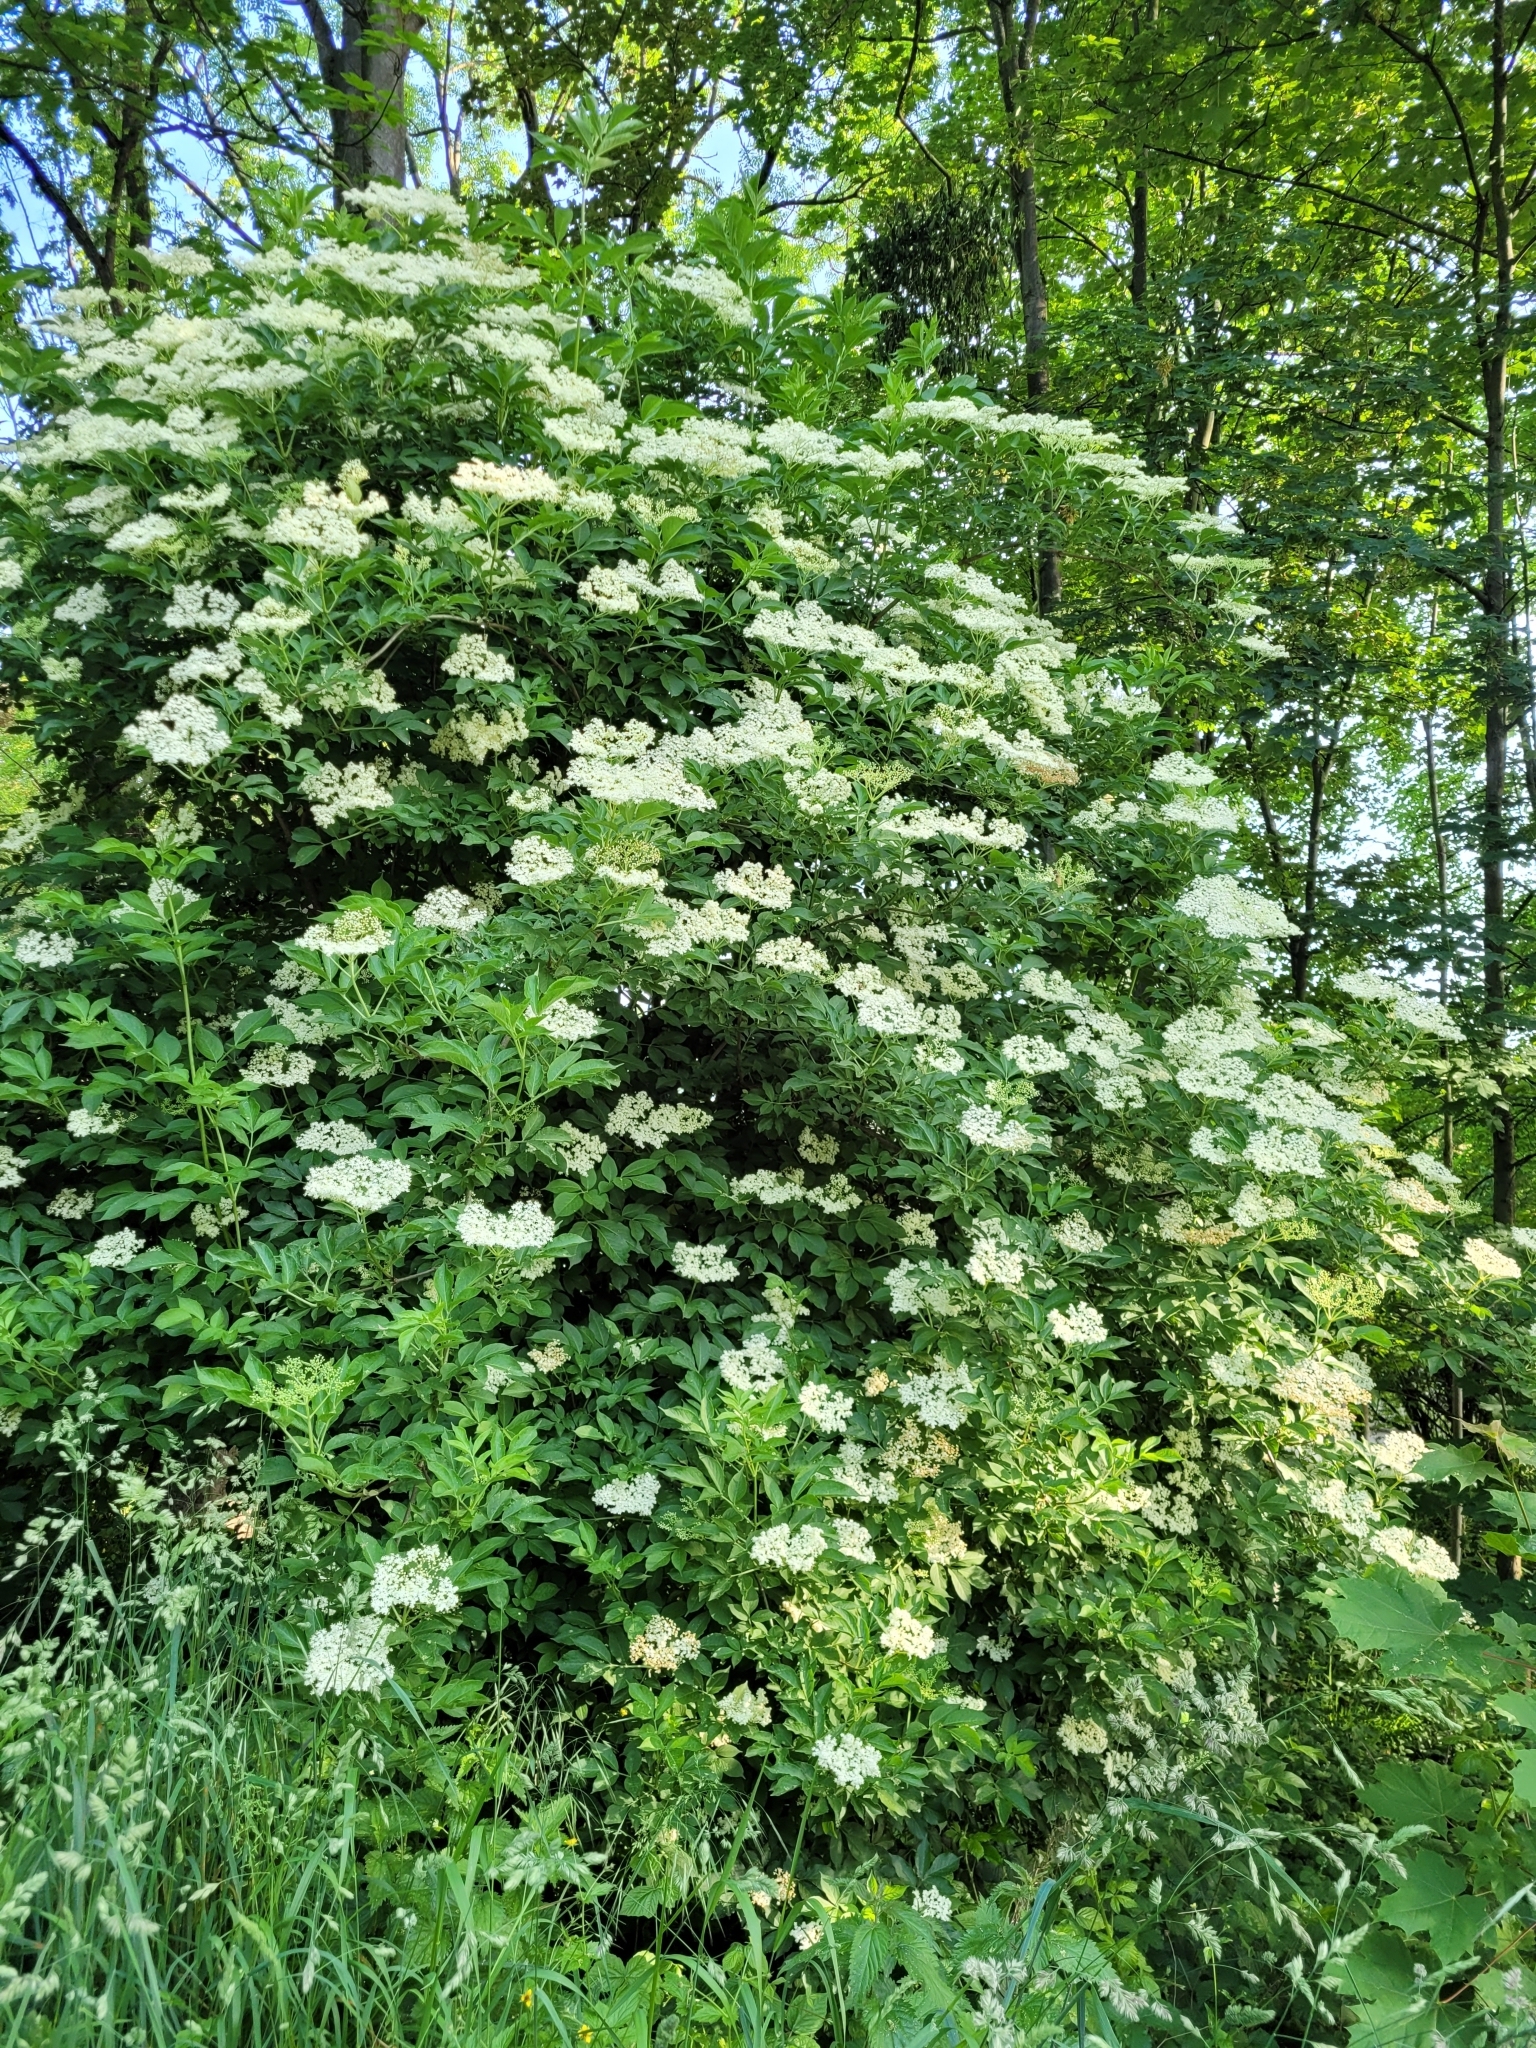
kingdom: Plantae
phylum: Tracheophyta
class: Magnoliopsida
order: Dipsacales
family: Viburnaceae
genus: Sambucus
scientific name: Sambucus nigra
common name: Elder
